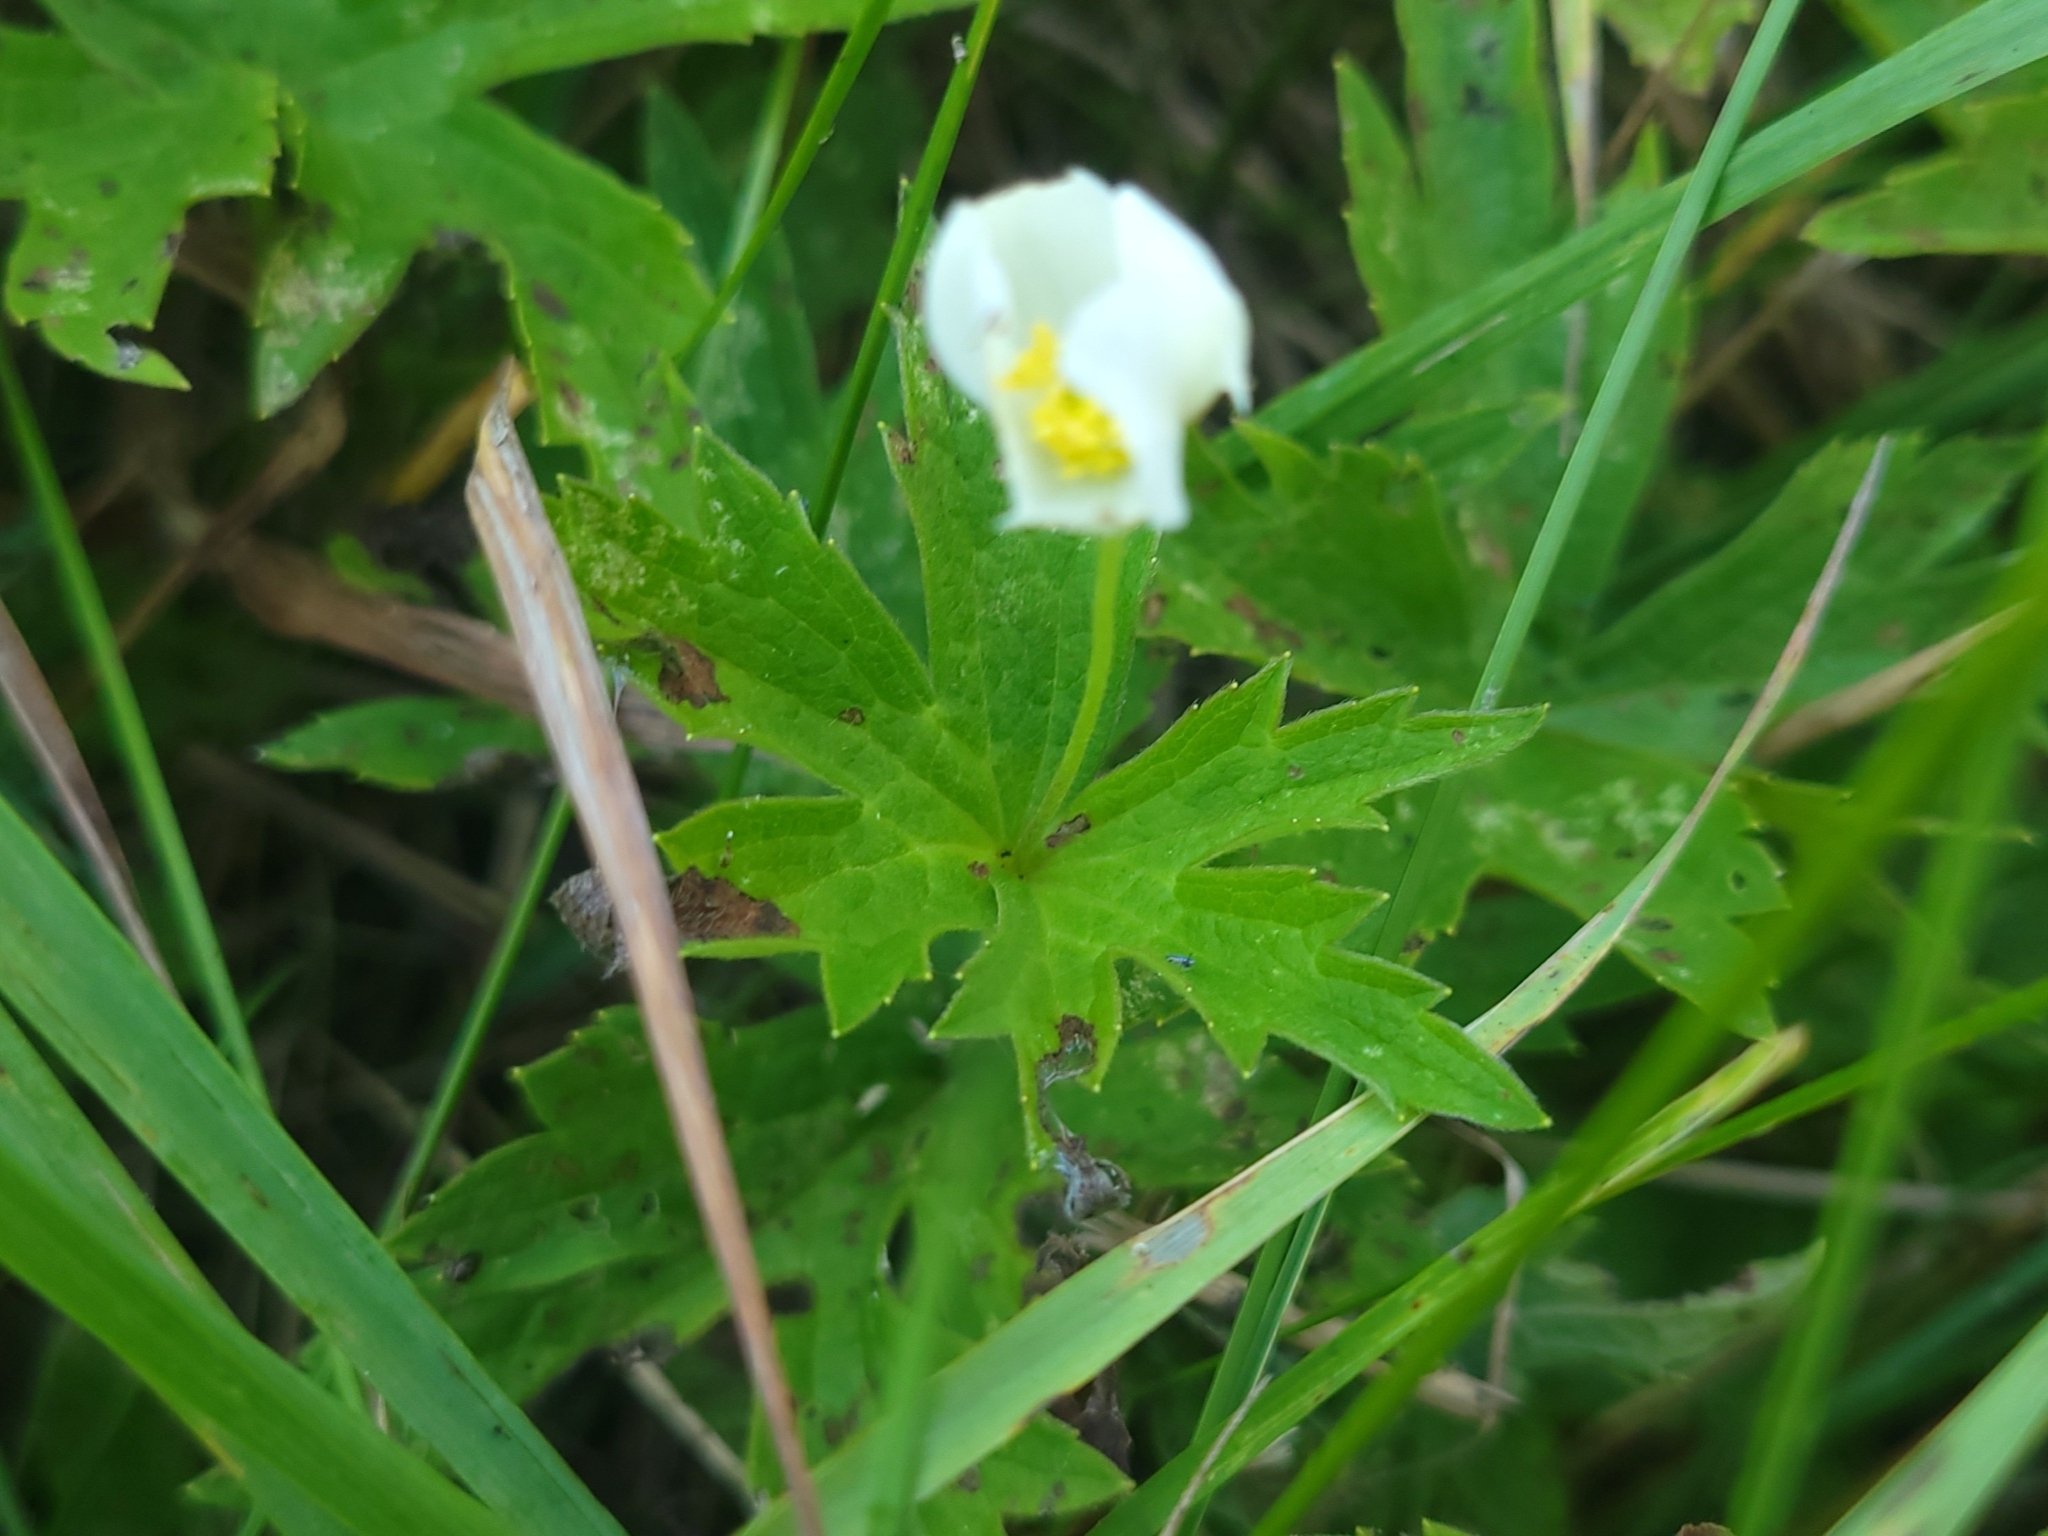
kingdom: Plantae
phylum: Tracheophyta
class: Magnoliopsida
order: Ranunculales
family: Ranunculaceae
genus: Anemonastrum
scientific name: Anemonastrum canadense
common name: Canada anemone
